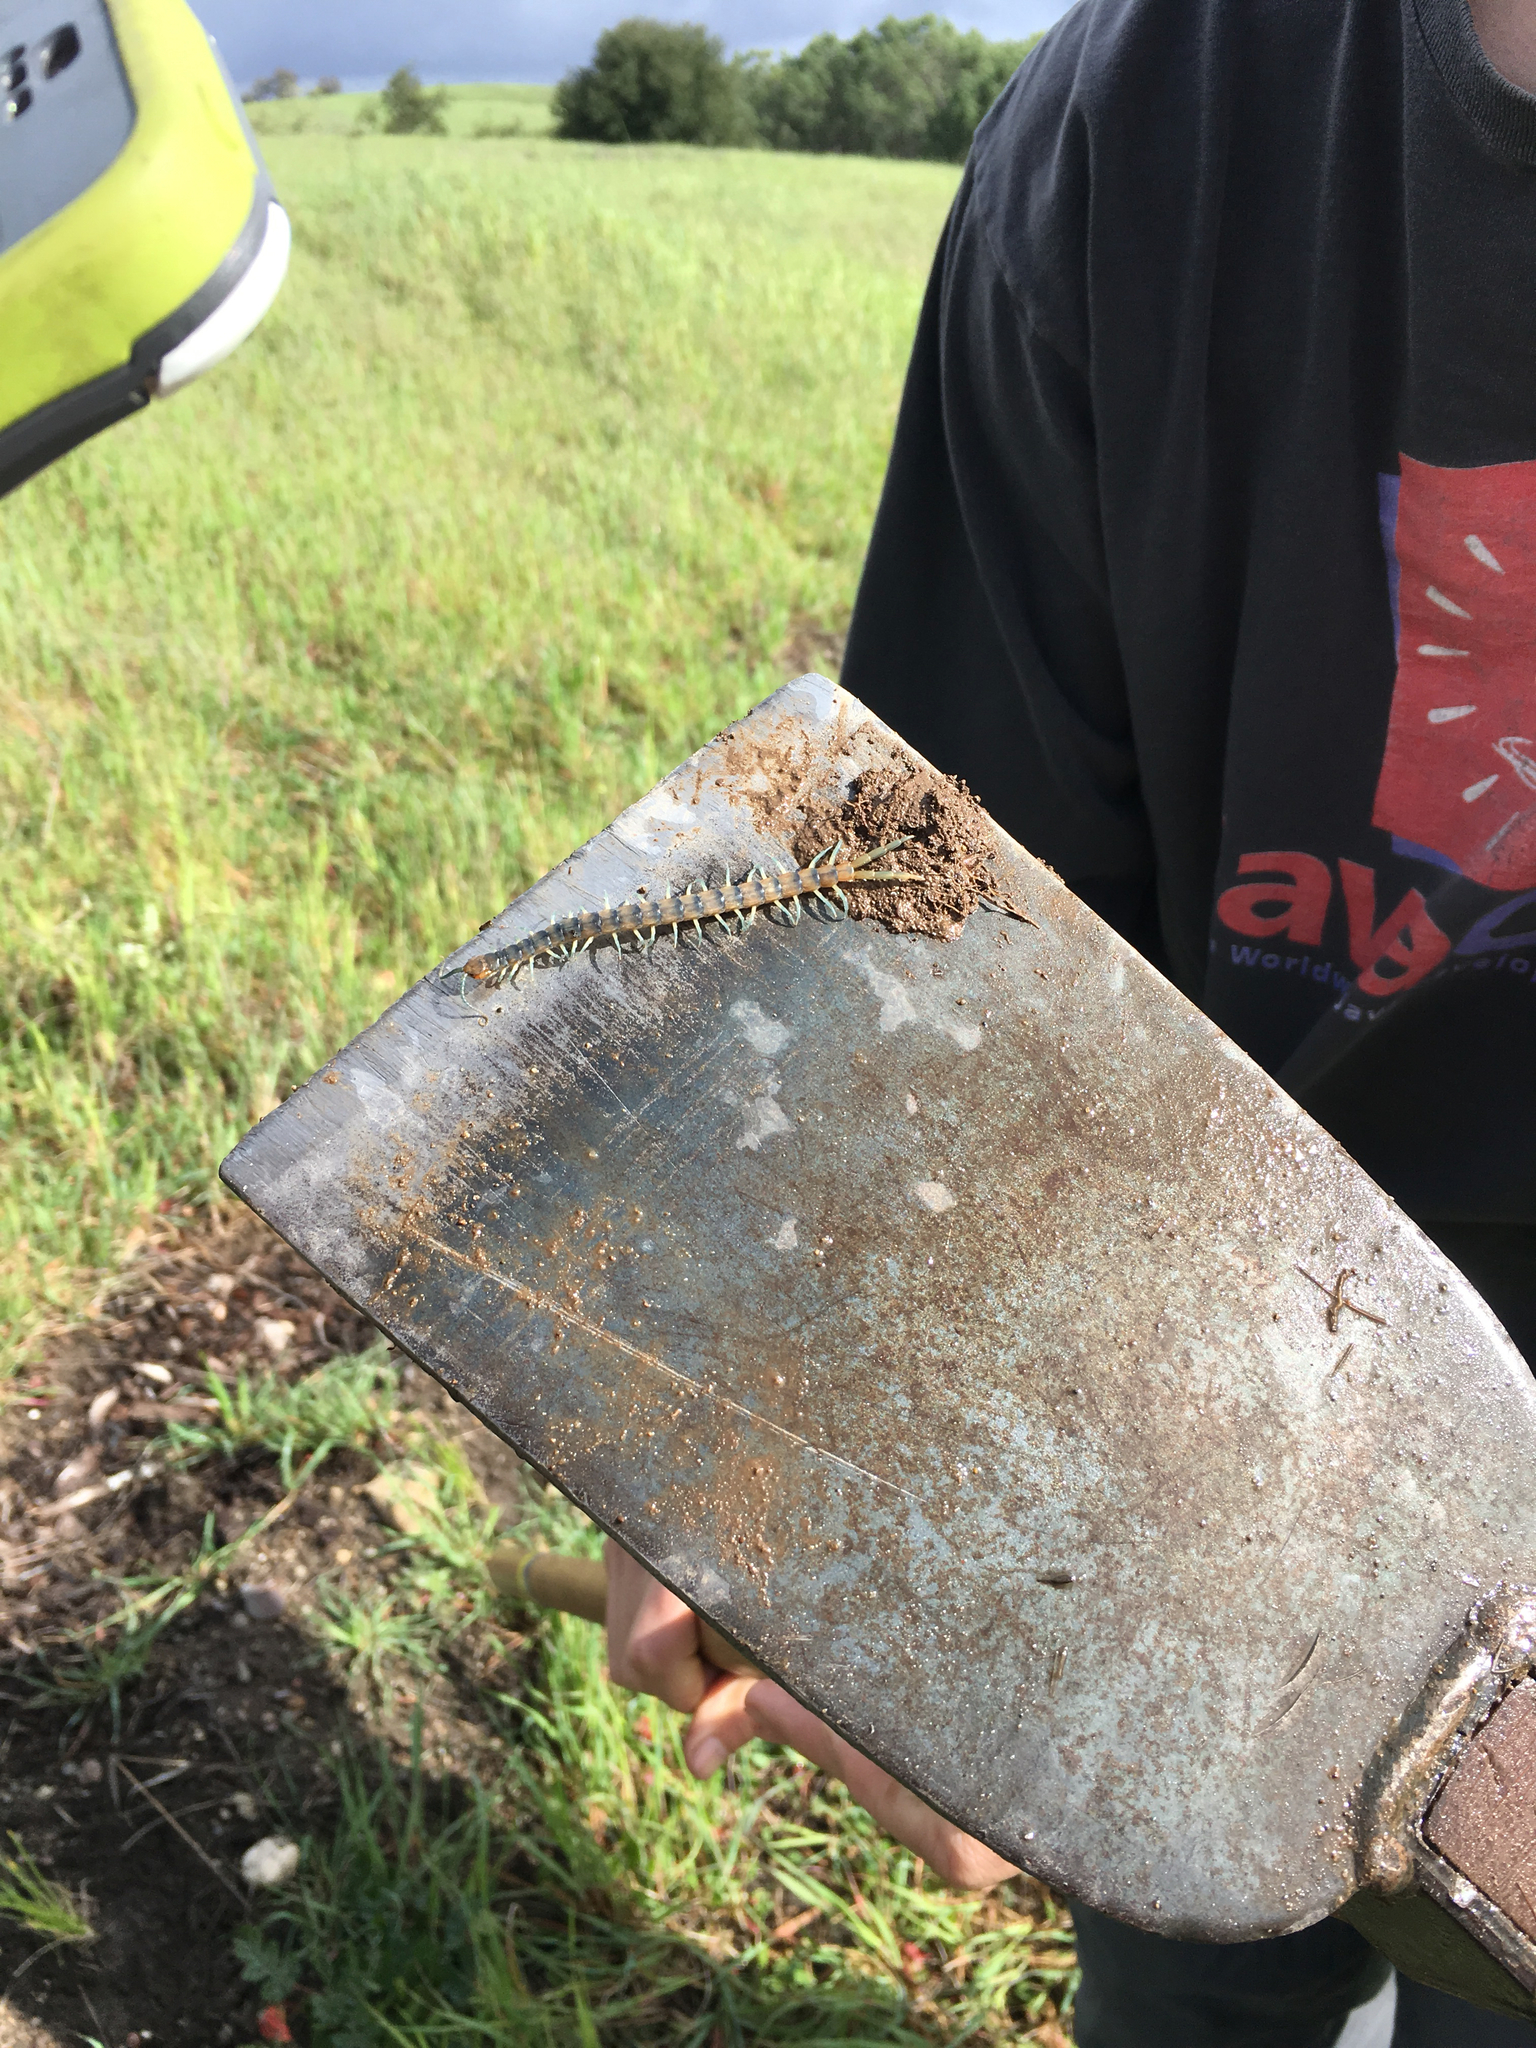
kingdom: Animalia
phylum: Arthropoda
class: Chilopoda
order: Scolopendromorpha
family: Scolopendridae
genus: Scolopendra
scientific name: Scolopendra polymorpha
